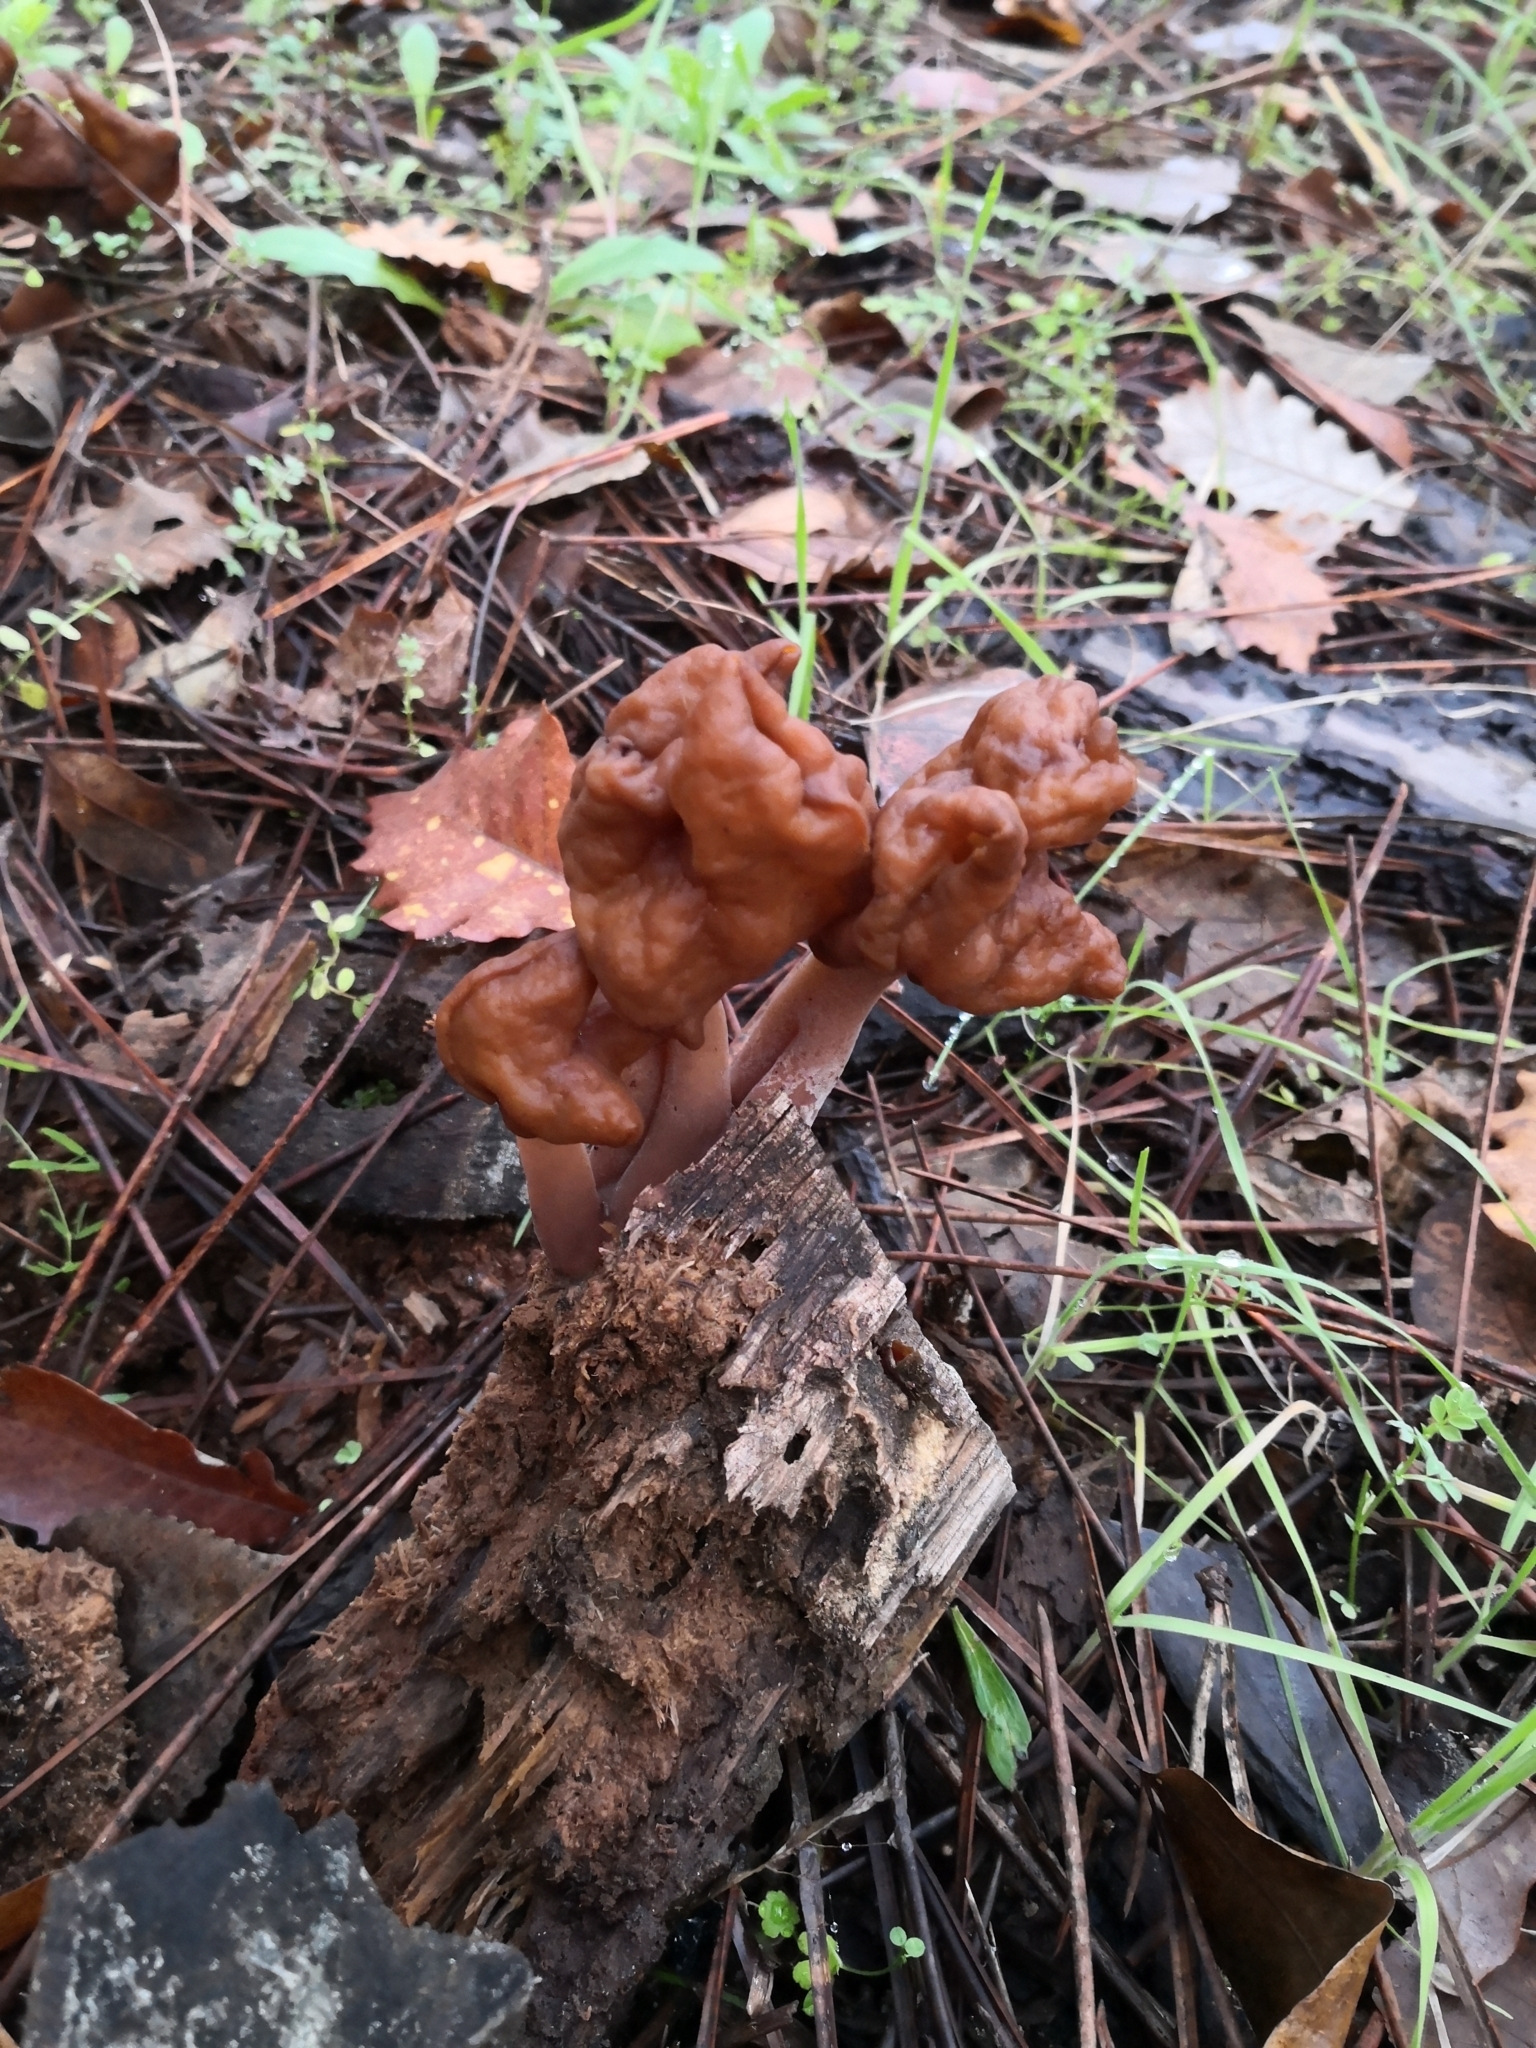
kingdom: Fungi
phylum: Ascomycota
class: Pezizomycetes
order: Pezizales
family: Discinaceae
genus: Gyromitra
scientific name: Gyromitra infula
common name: Pouched false morel
